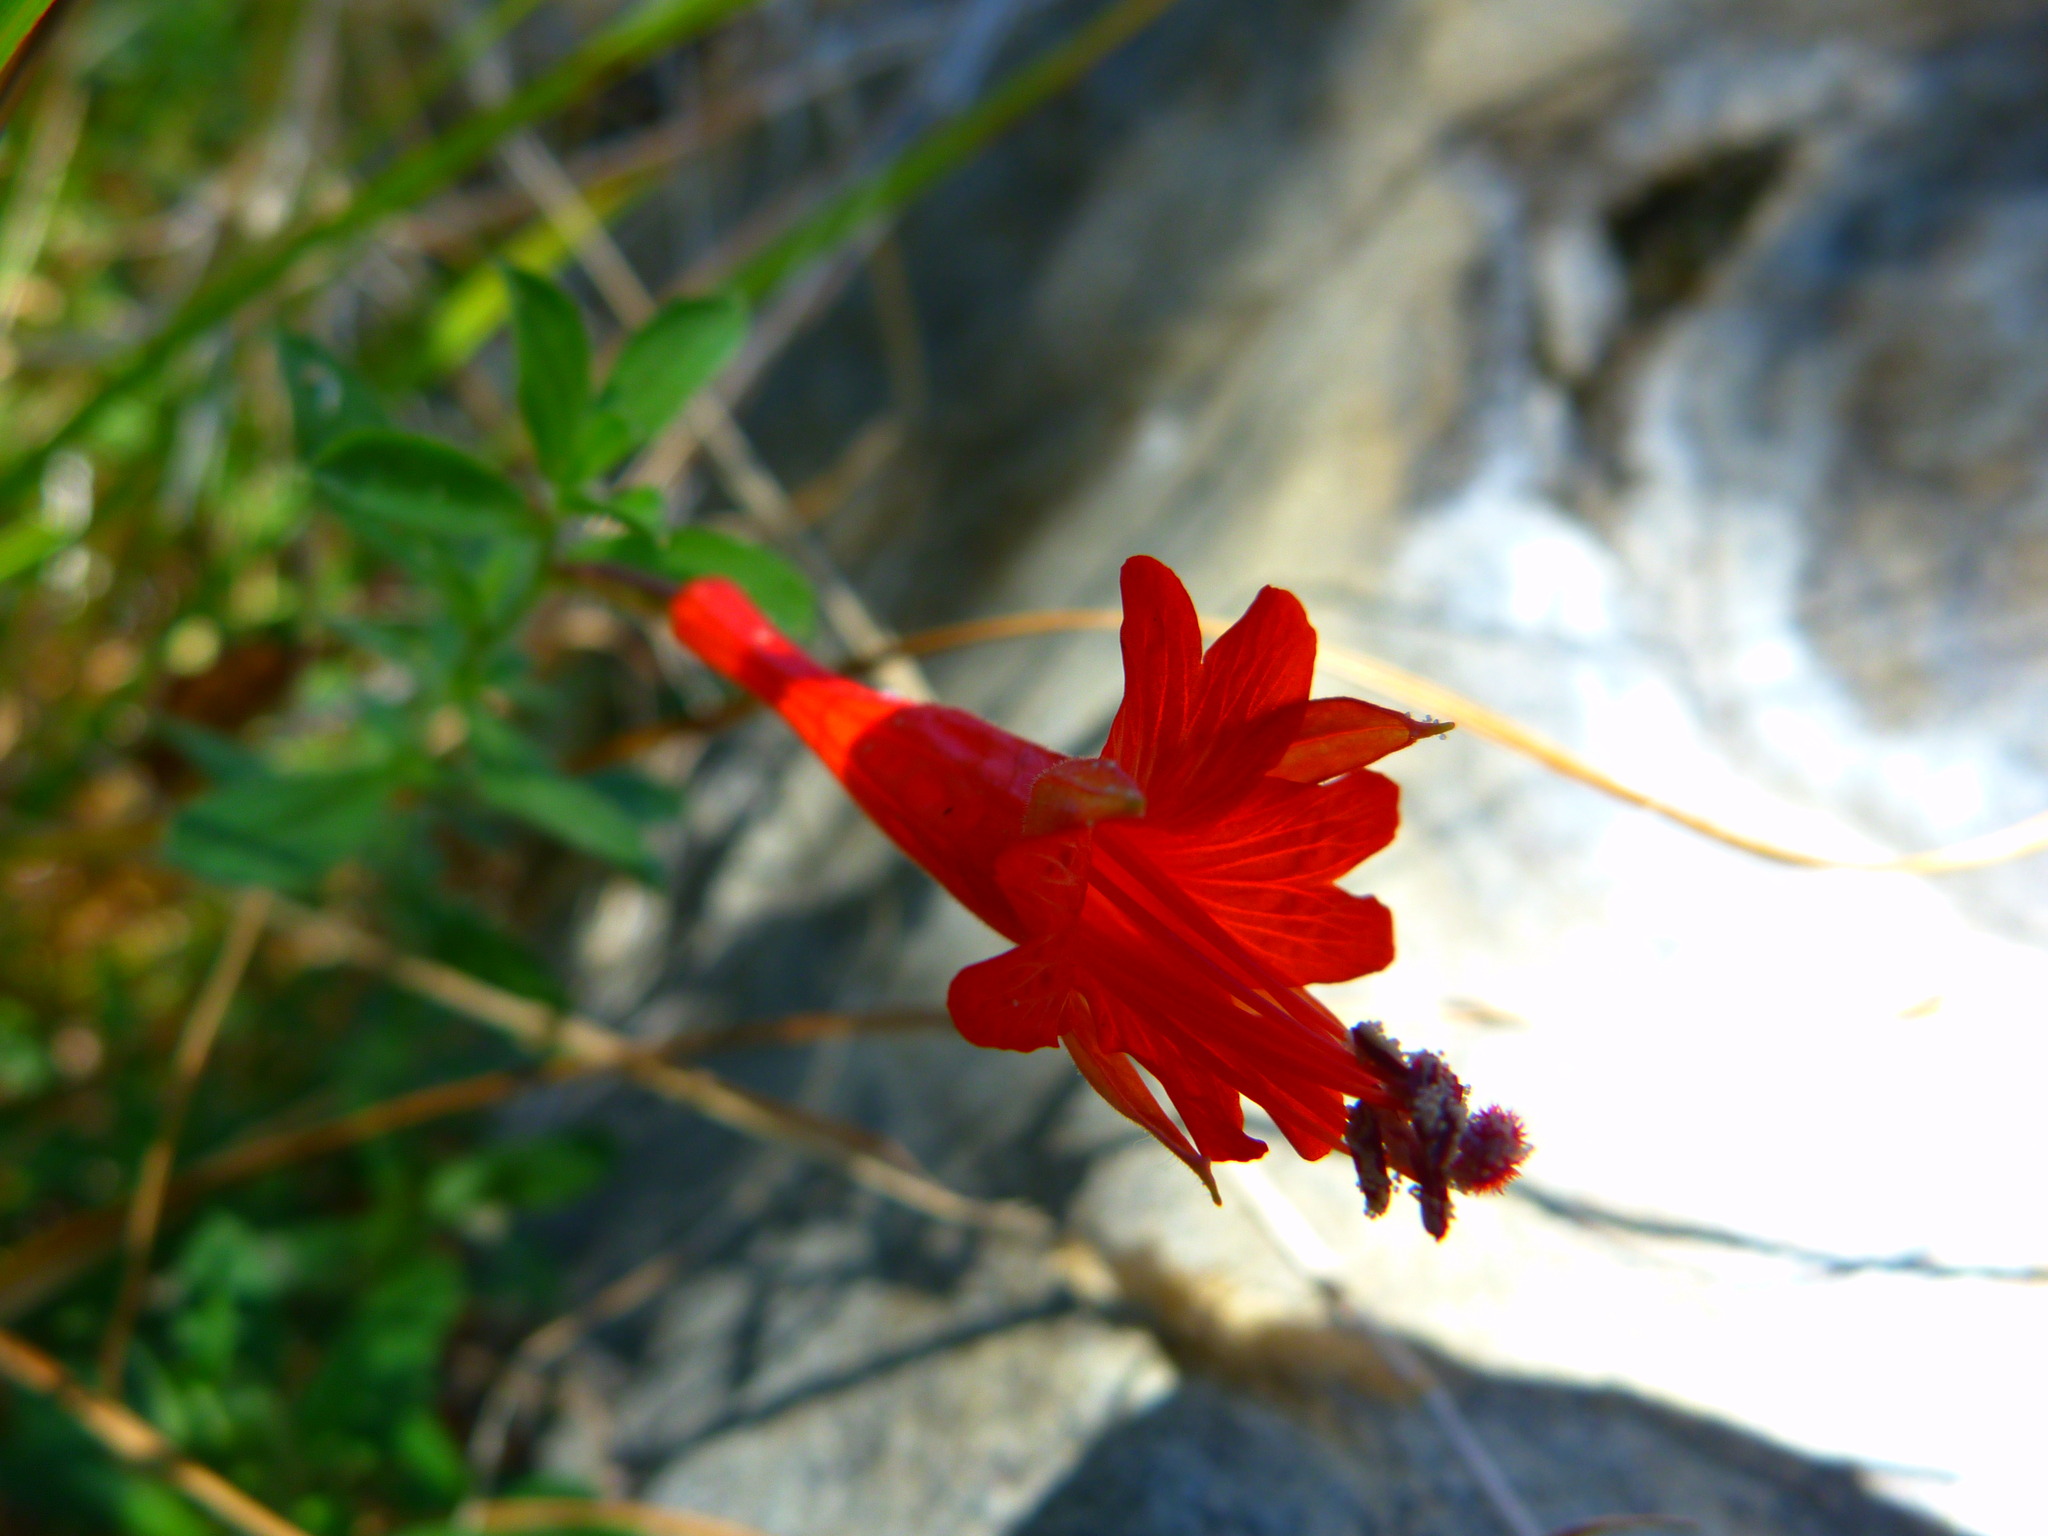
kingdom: Plantae
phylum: Tracheophyta
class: Magnoliopsida
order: Myrtales
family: Onagraceae
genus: Epilobium
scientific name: Epilobium canum
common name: California-fuchsia
